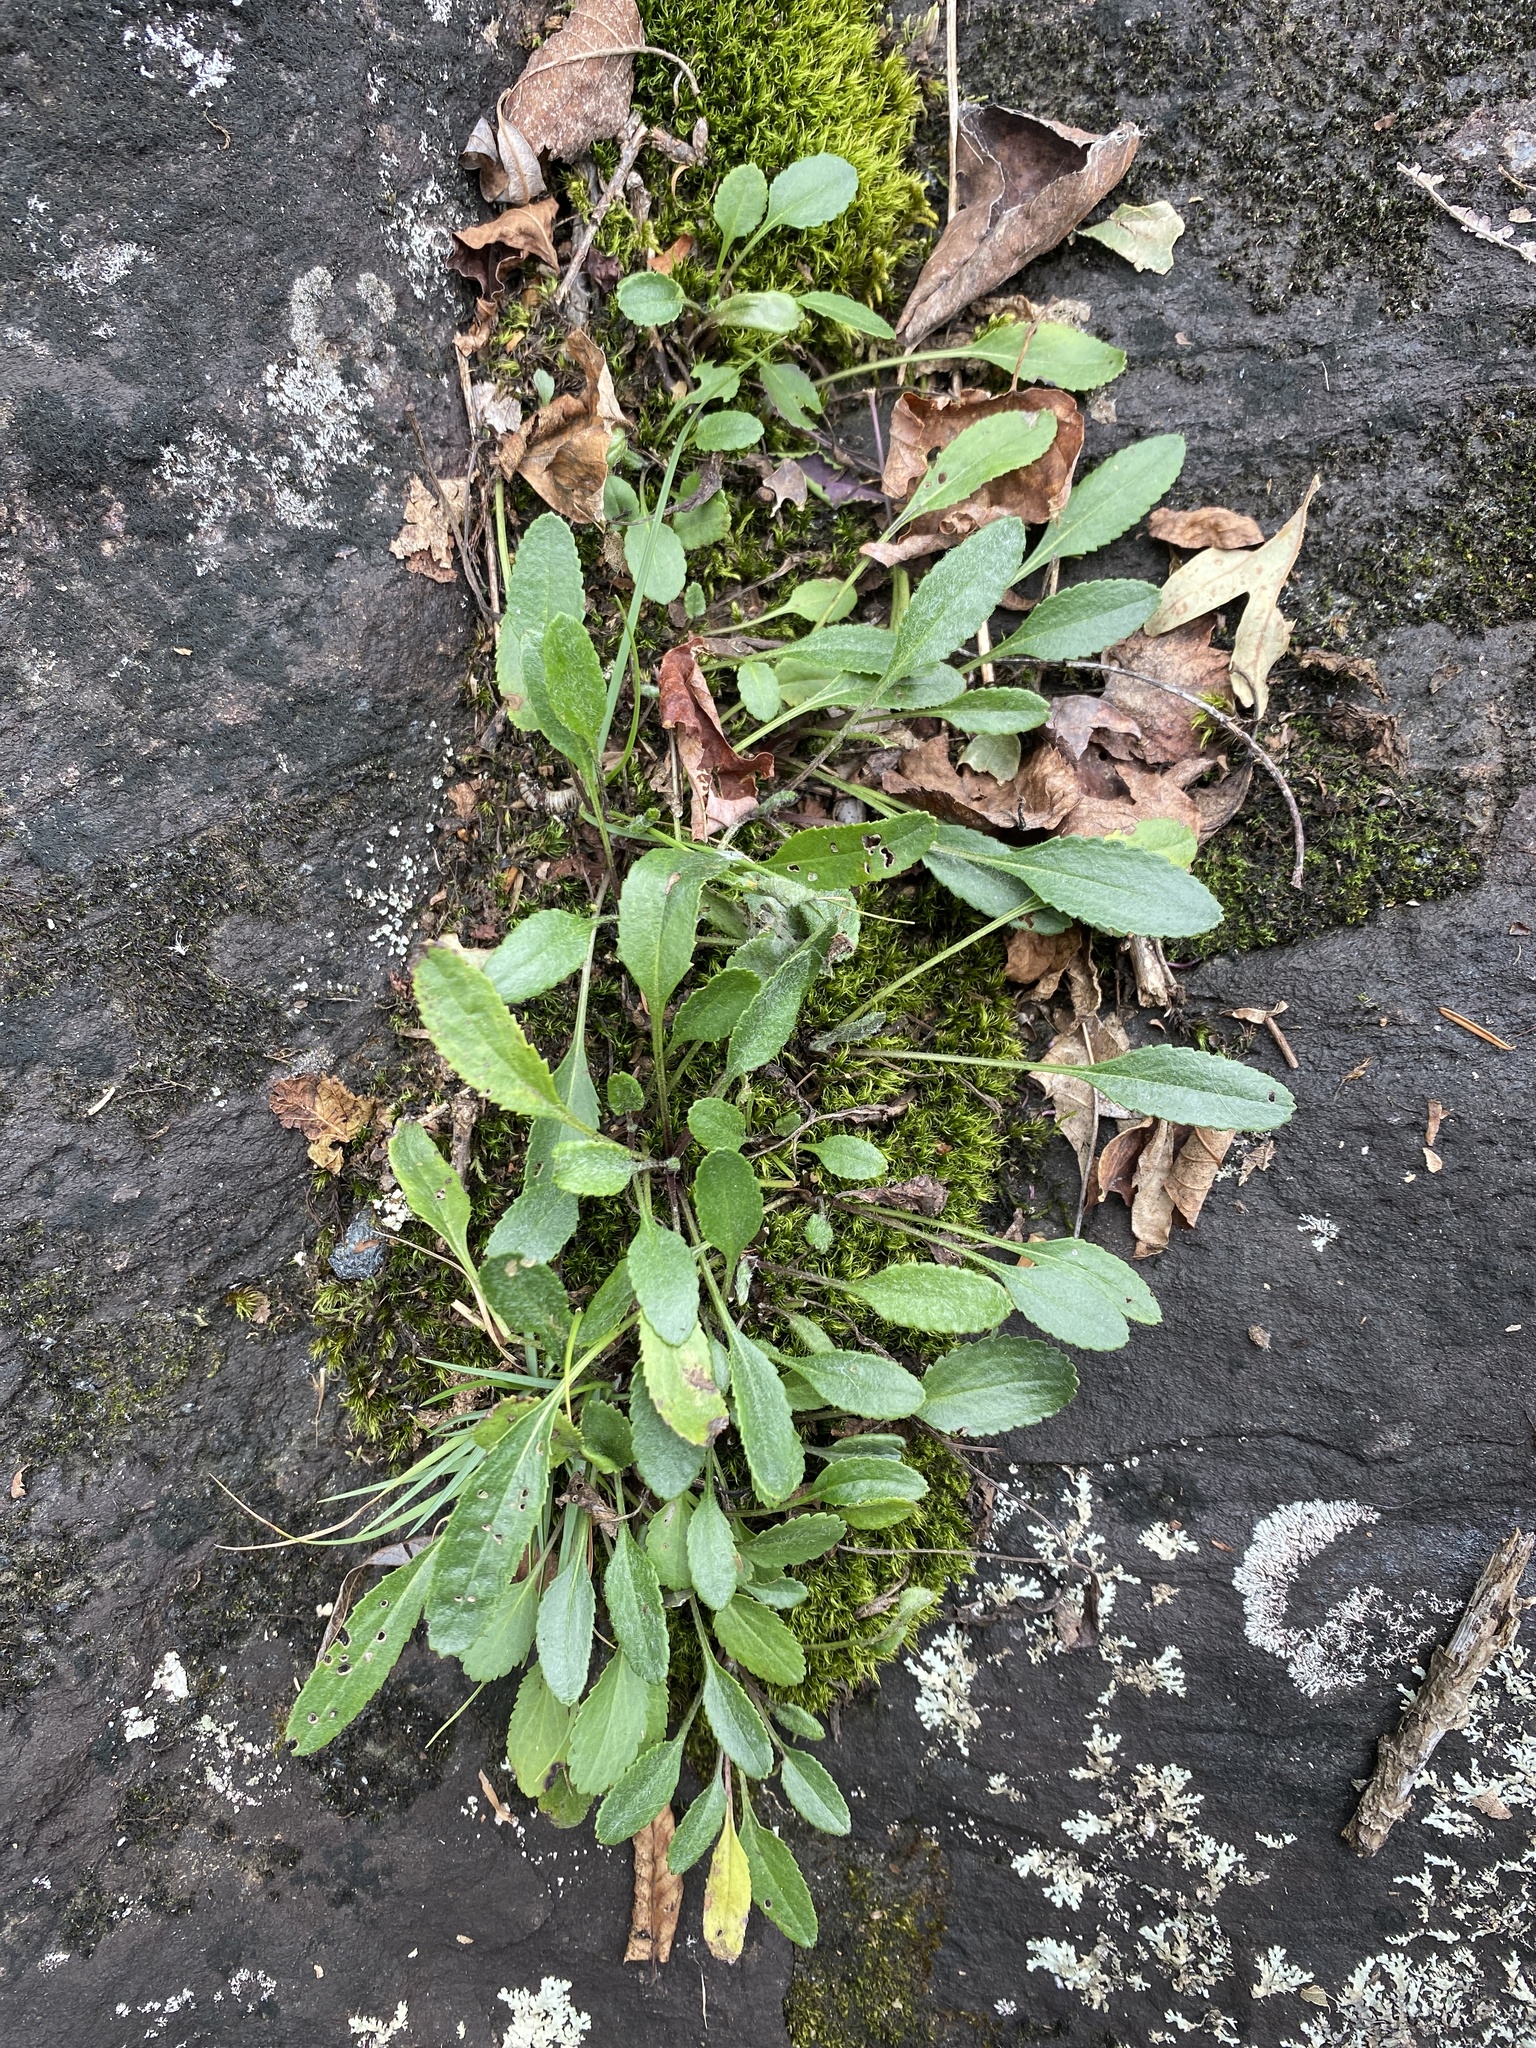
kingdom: Plantae
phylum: Tracheophyta
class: Magnoliopsida
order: Asterales
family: Asteraceae
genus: Packera
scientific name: Packera paupercula
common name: Balsam groundsel
